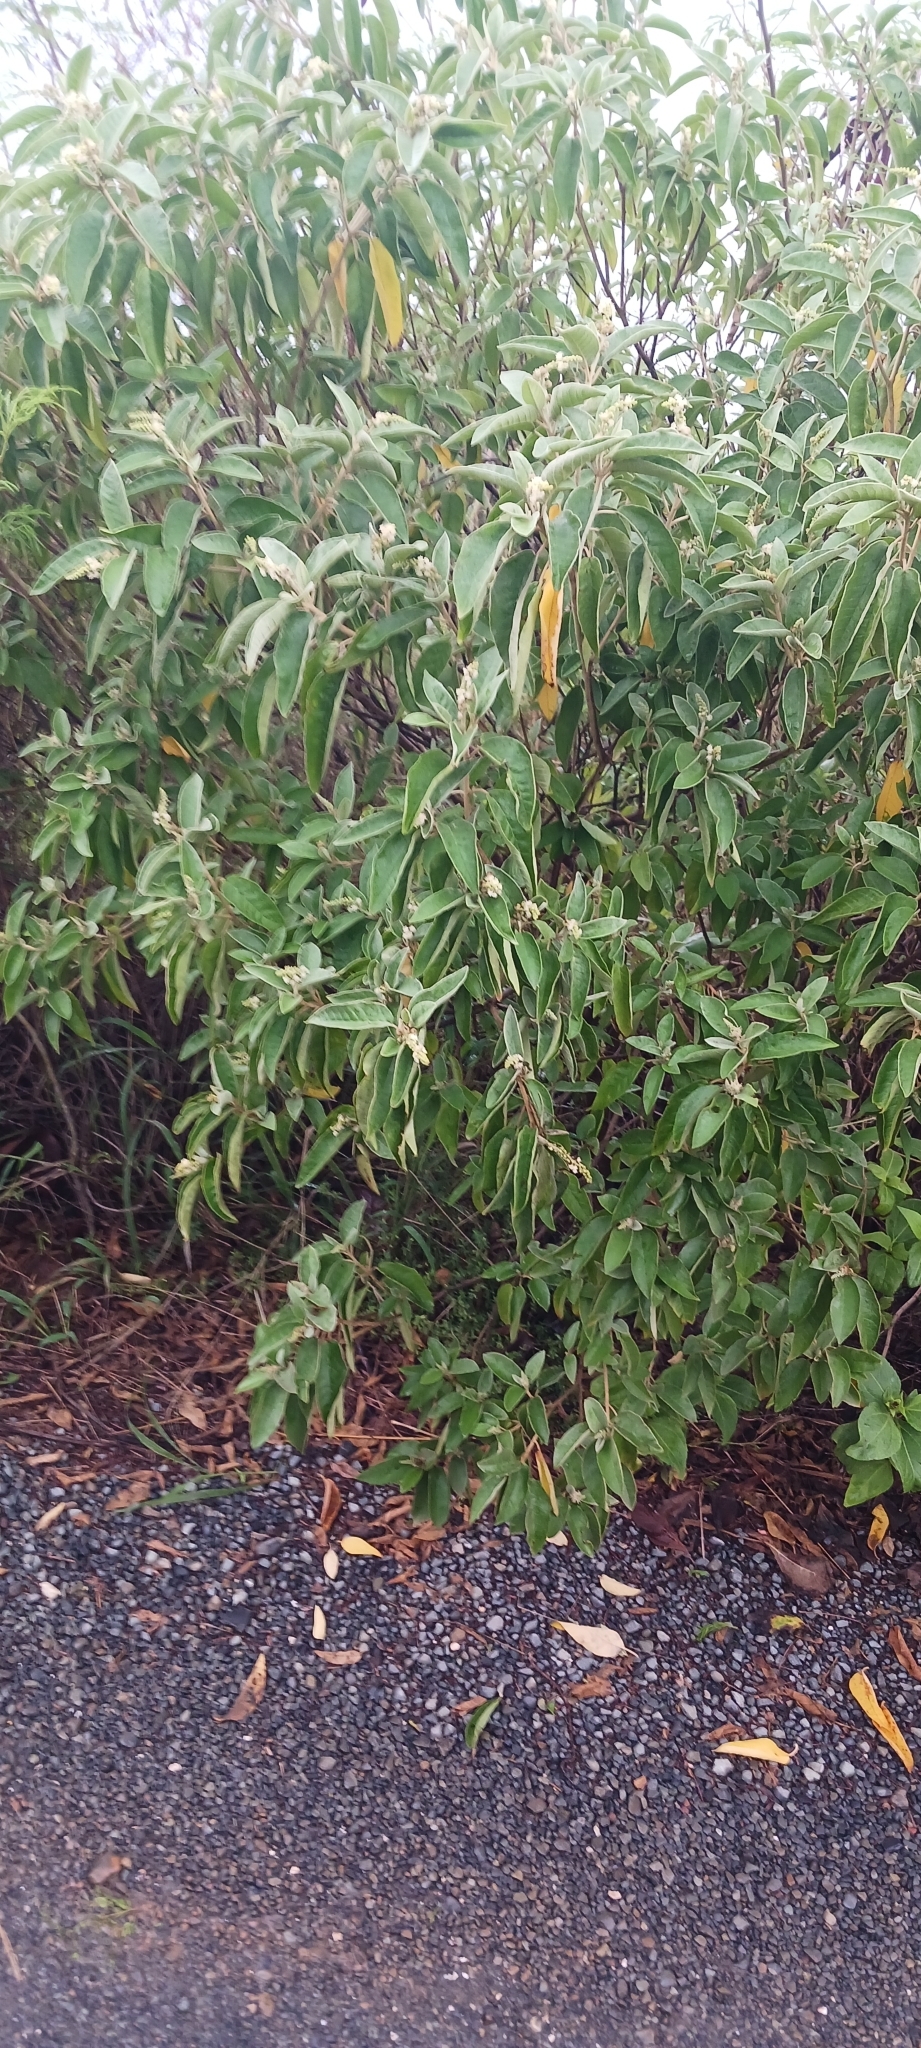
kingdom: Plantae
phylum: Tracheophyta
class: Magnoliopsida
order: Malpighiales
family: Euphorbiaceae
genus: Croton
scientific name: Croton flavens
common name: Yellow balsam
